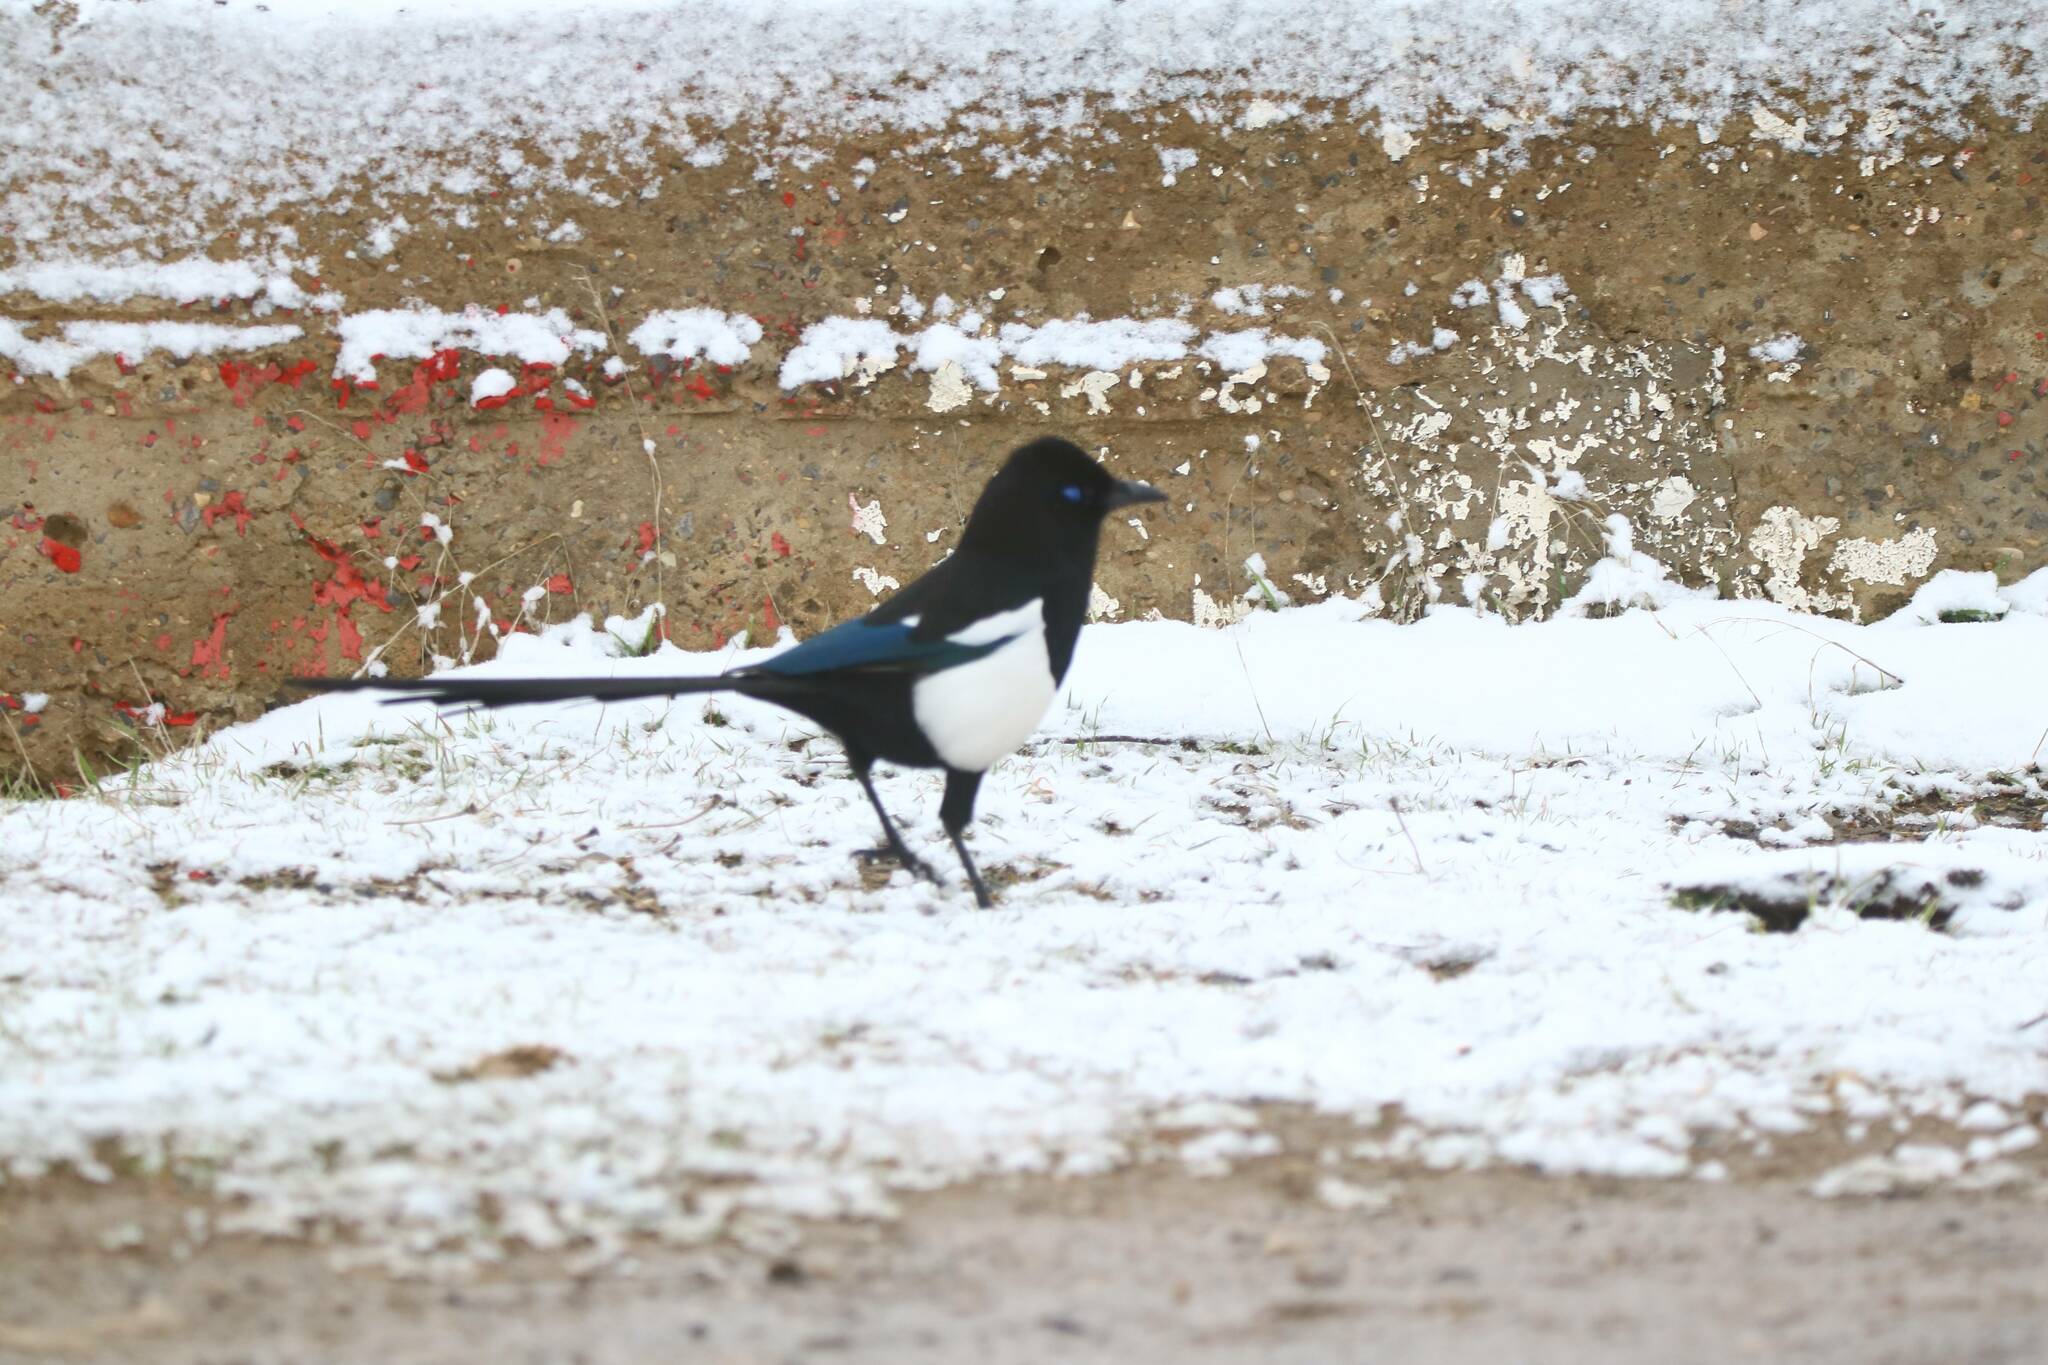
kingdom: Animalia
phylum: Chordata
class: Aves
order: Passeriformes
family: Corvidae
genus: Pica
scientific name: Pica mauritanica
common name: Maghreb magpie
